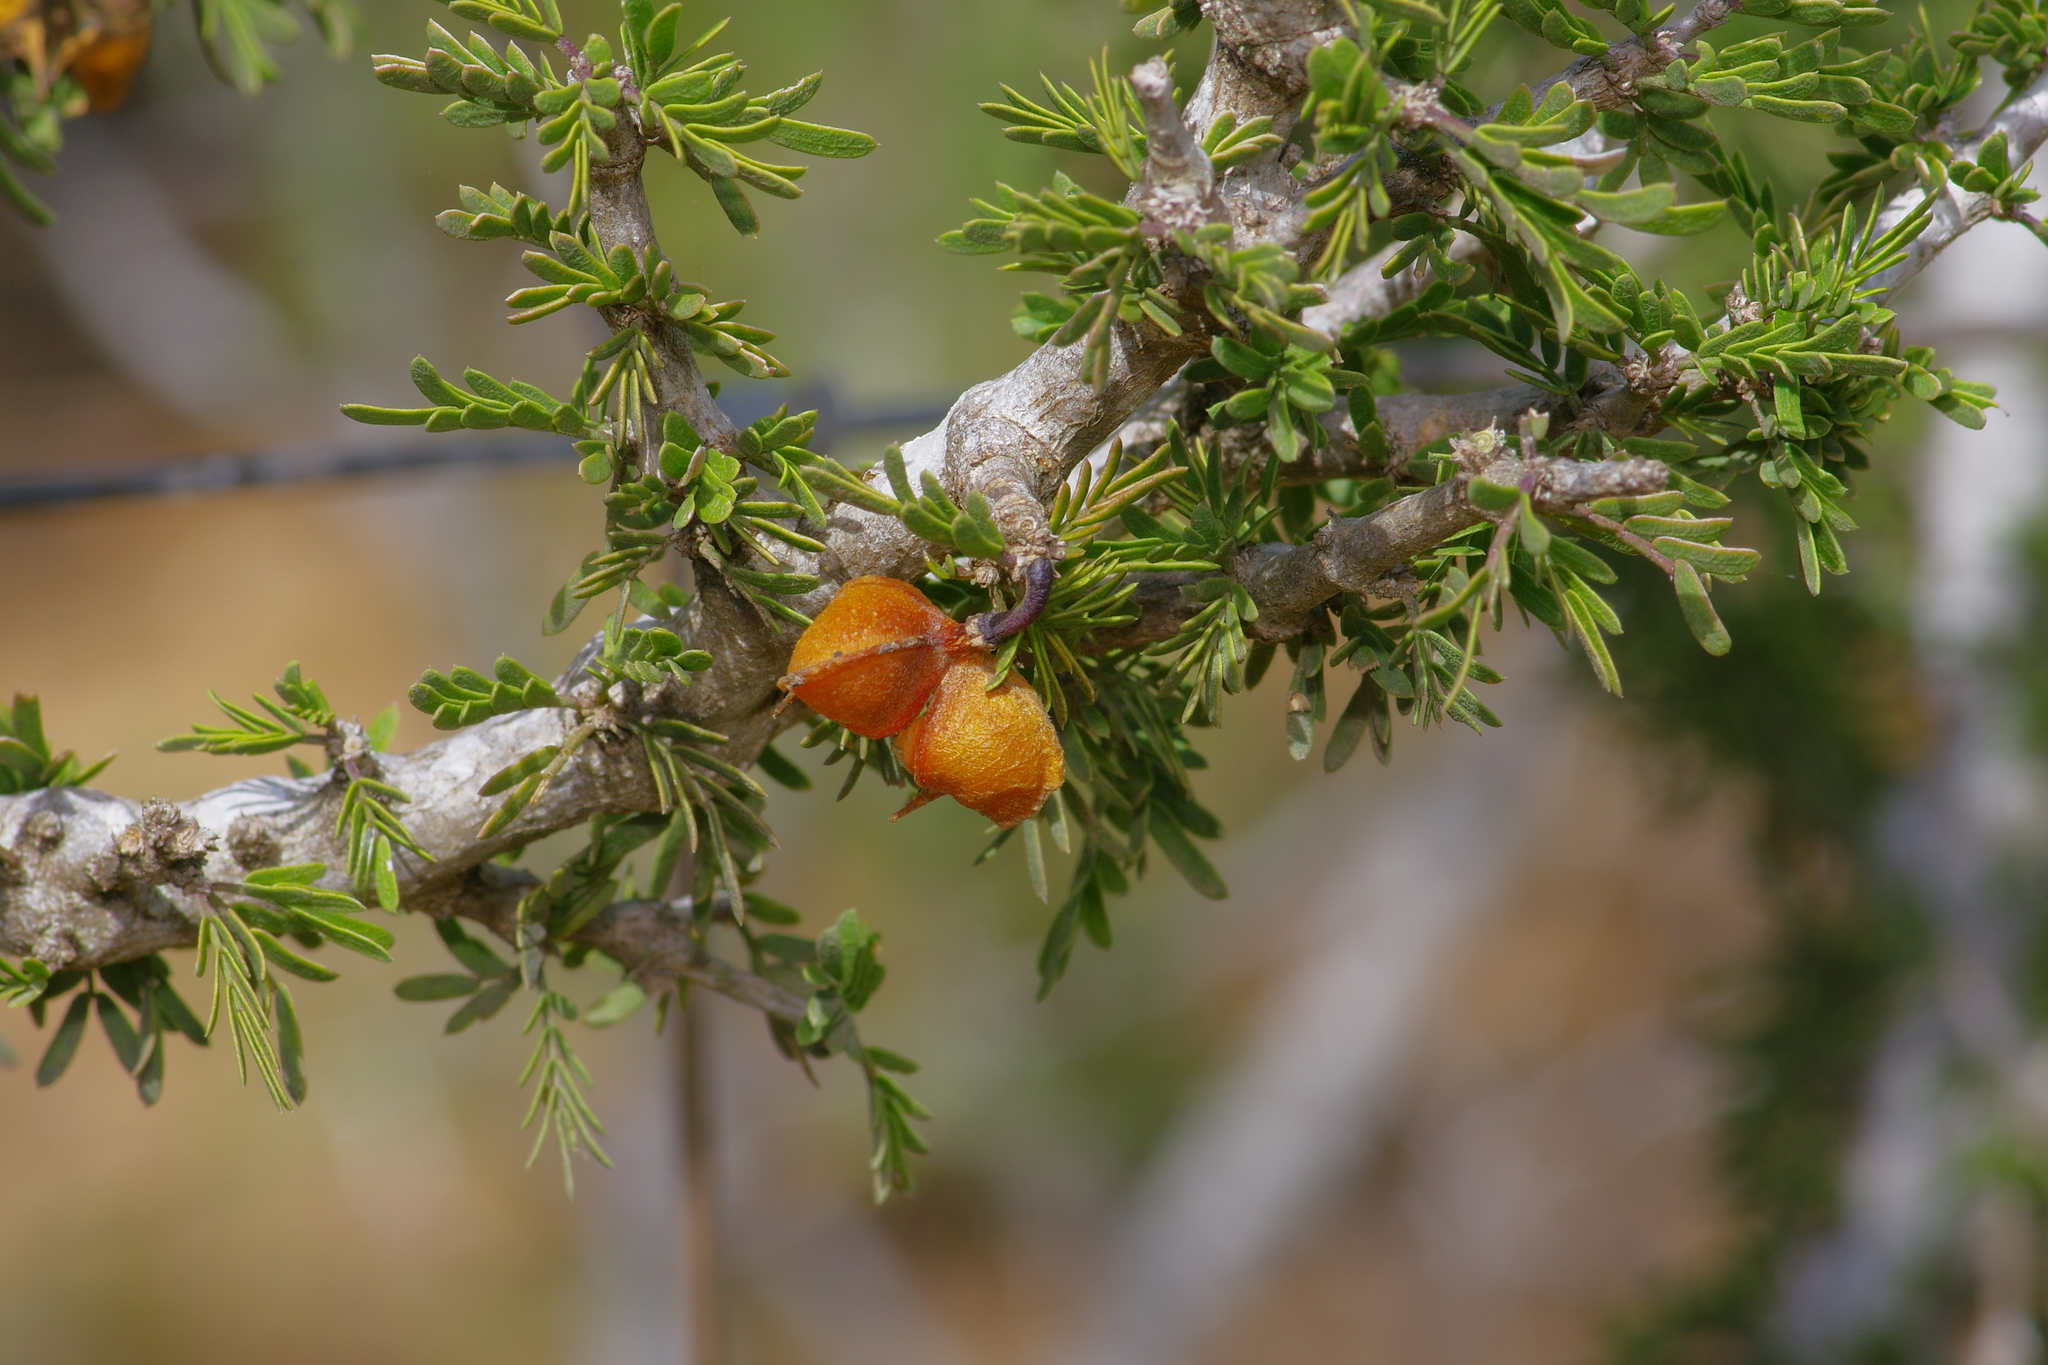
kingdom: Plantae
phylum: Tracheophyta
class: Magnoliopsida
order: Zygophyllales
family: Zygophyllaceae
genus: Porlieria
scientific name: Porlieria angustifolia
